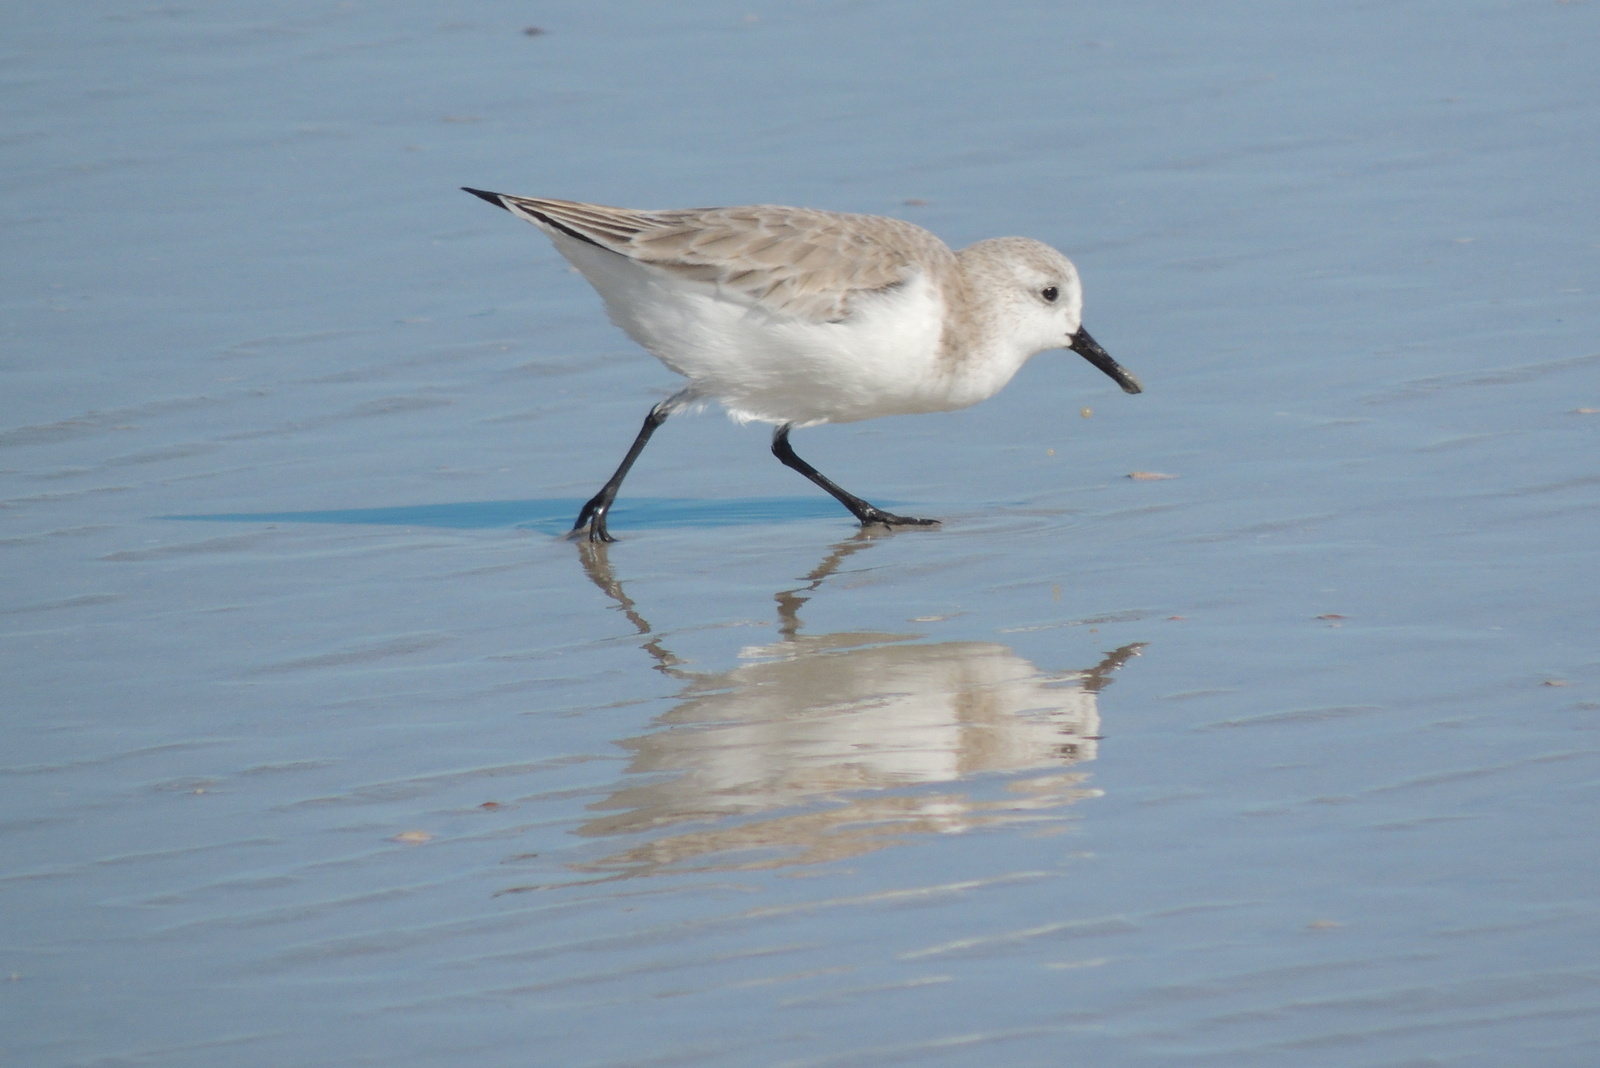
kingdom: Animalia
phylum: Chordata
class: Aves
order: Charadriiformes
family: Scolopacidae
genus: Calidris
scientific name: Calidris alba
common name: Sanderling
